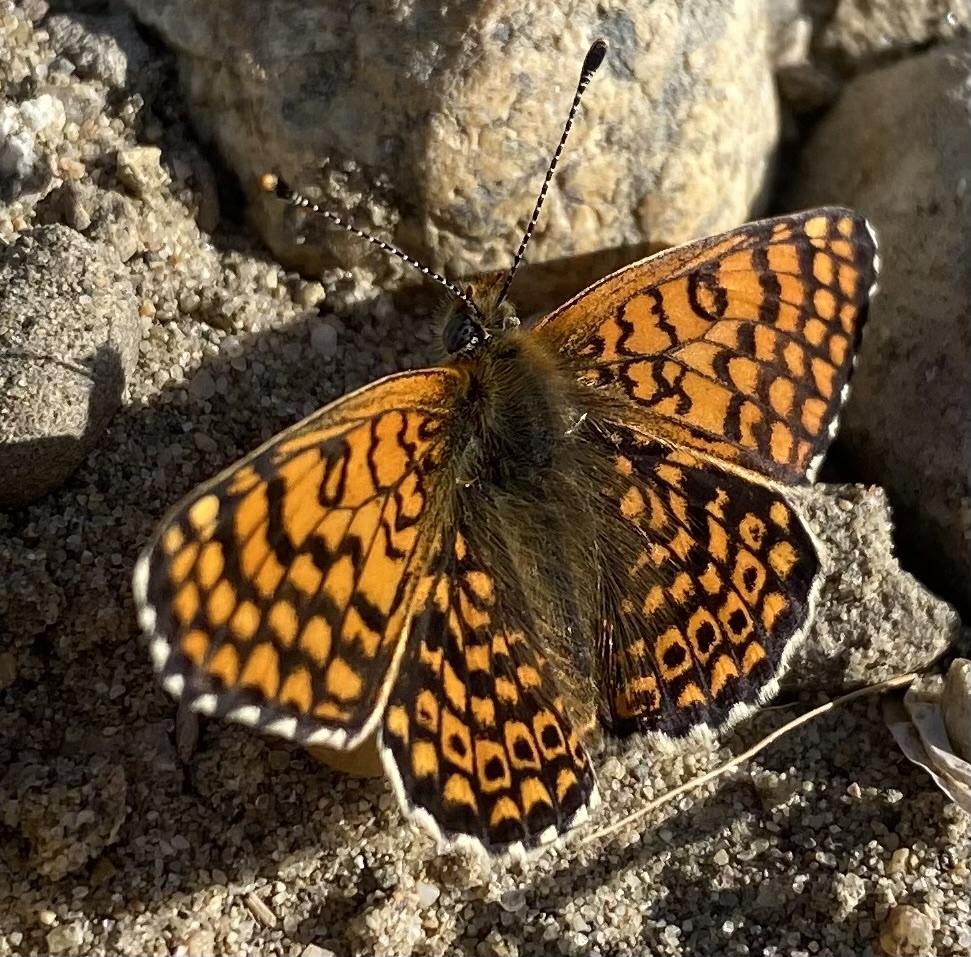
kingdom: Animalia
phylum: Arthropoda
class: Insecta
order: Lepidoptera
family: Nymphalidae
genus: Melitaea
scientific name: Melitaea cinxia
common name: Glanville fritillary
